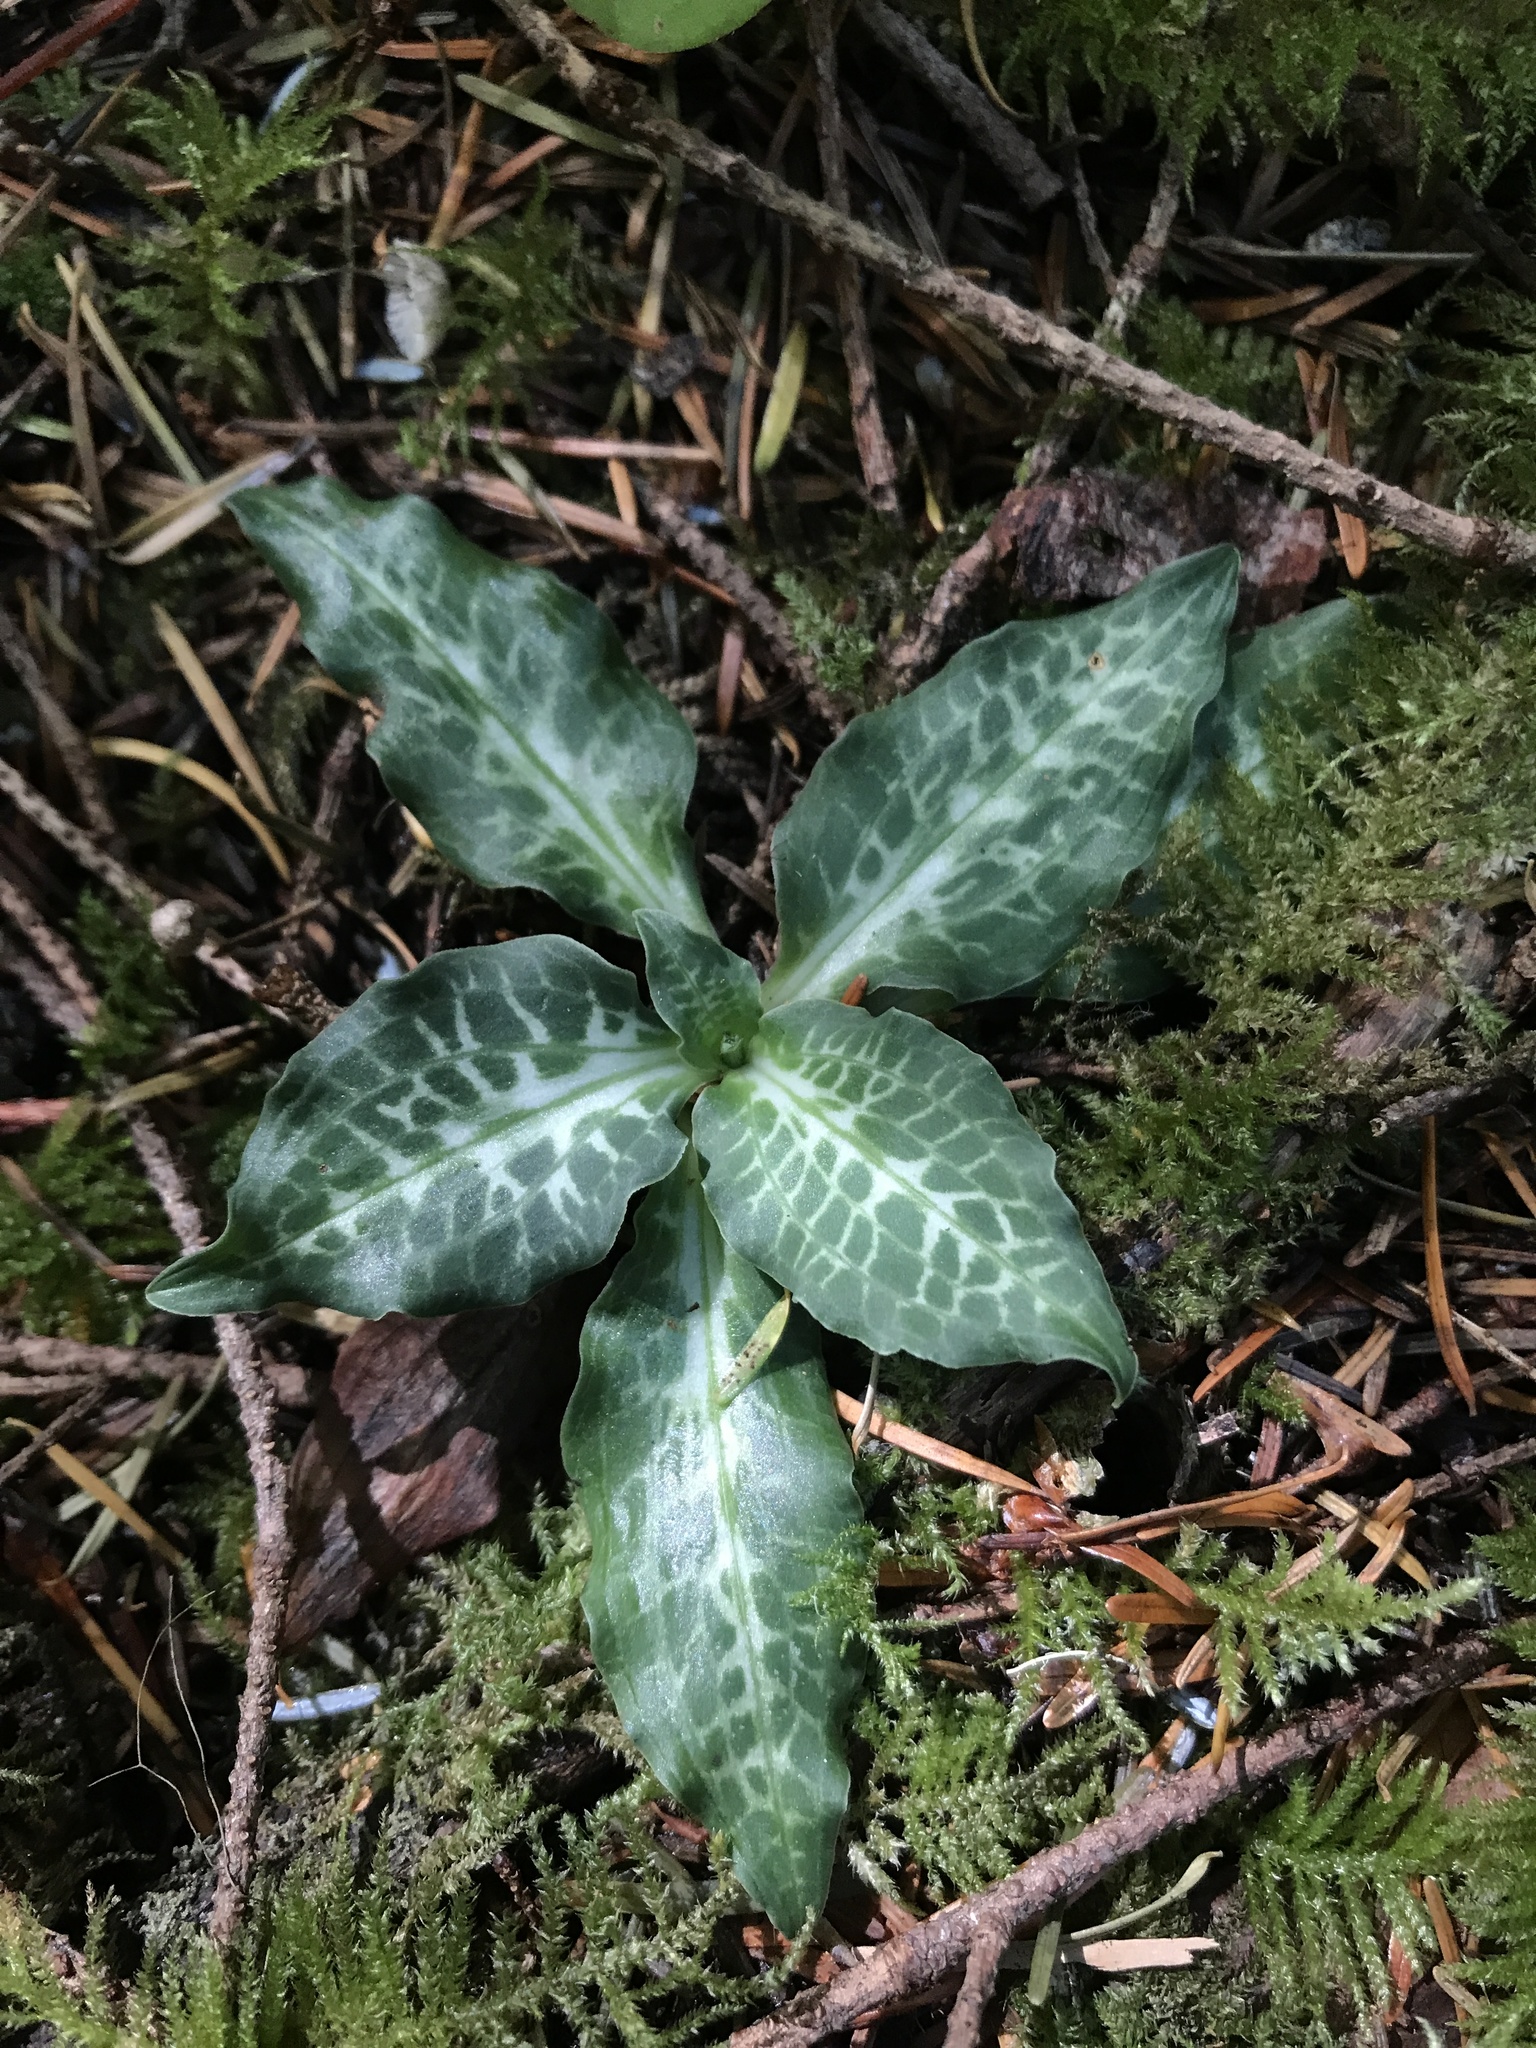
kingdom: Plantae
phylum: Tracheophyta
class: Liliopsida
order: Asparagales
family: Orchidaceae
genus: Goodyera
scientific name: Goodyera oblongifolia
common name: Giant rattlesnake-plantain
